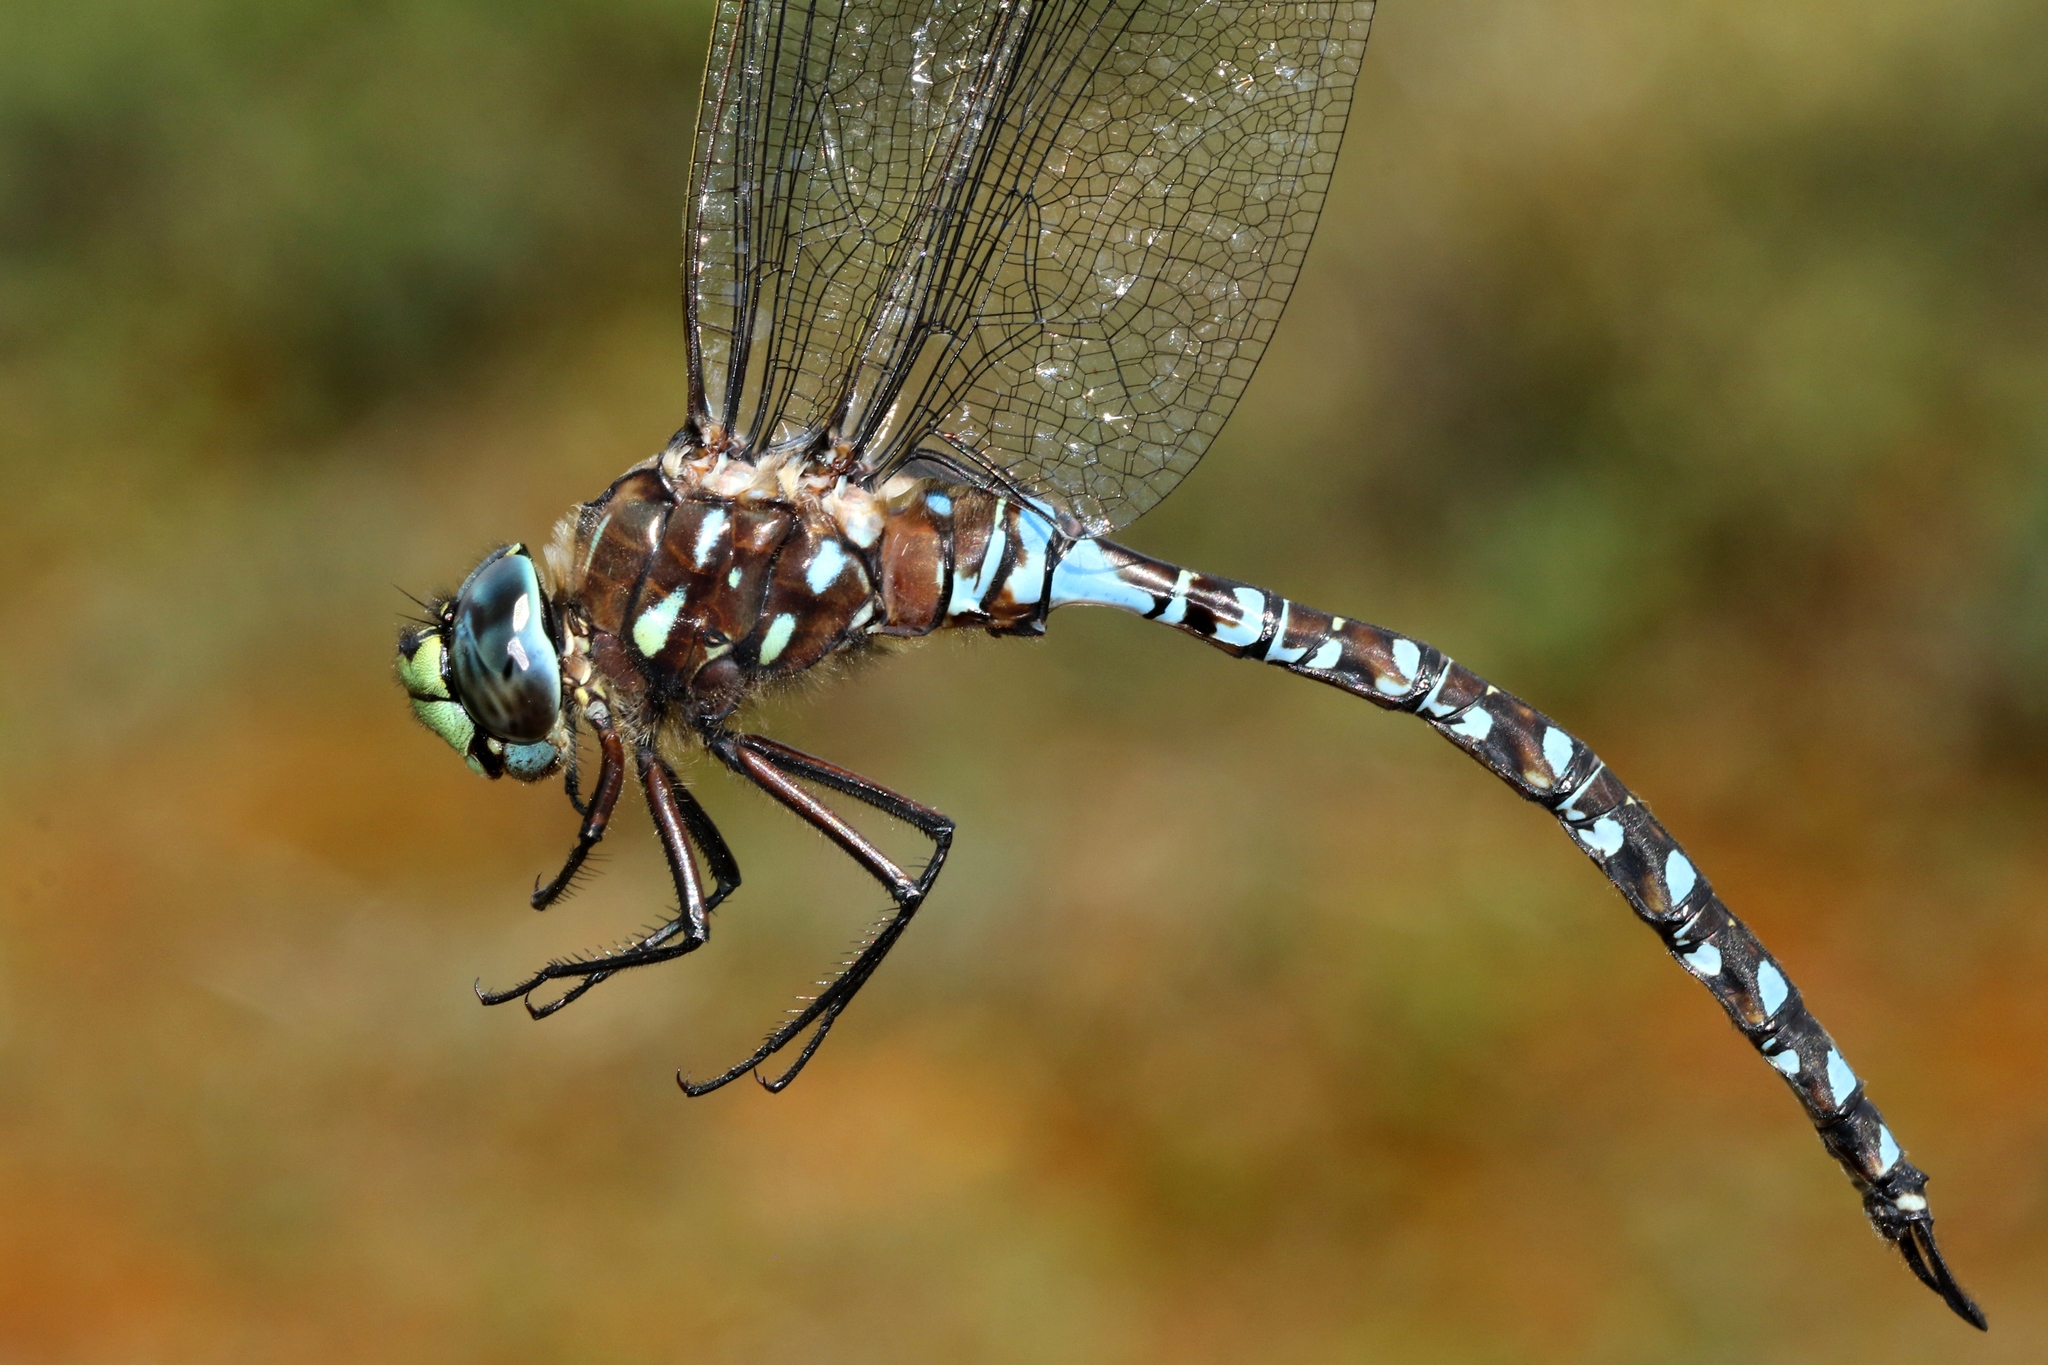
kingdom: Animalia
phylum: Arthropoda
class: Insecta
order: Odonata
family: Aeshnidae
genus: Aeshna
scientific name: Aeshna interrupta
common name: Variable darner
